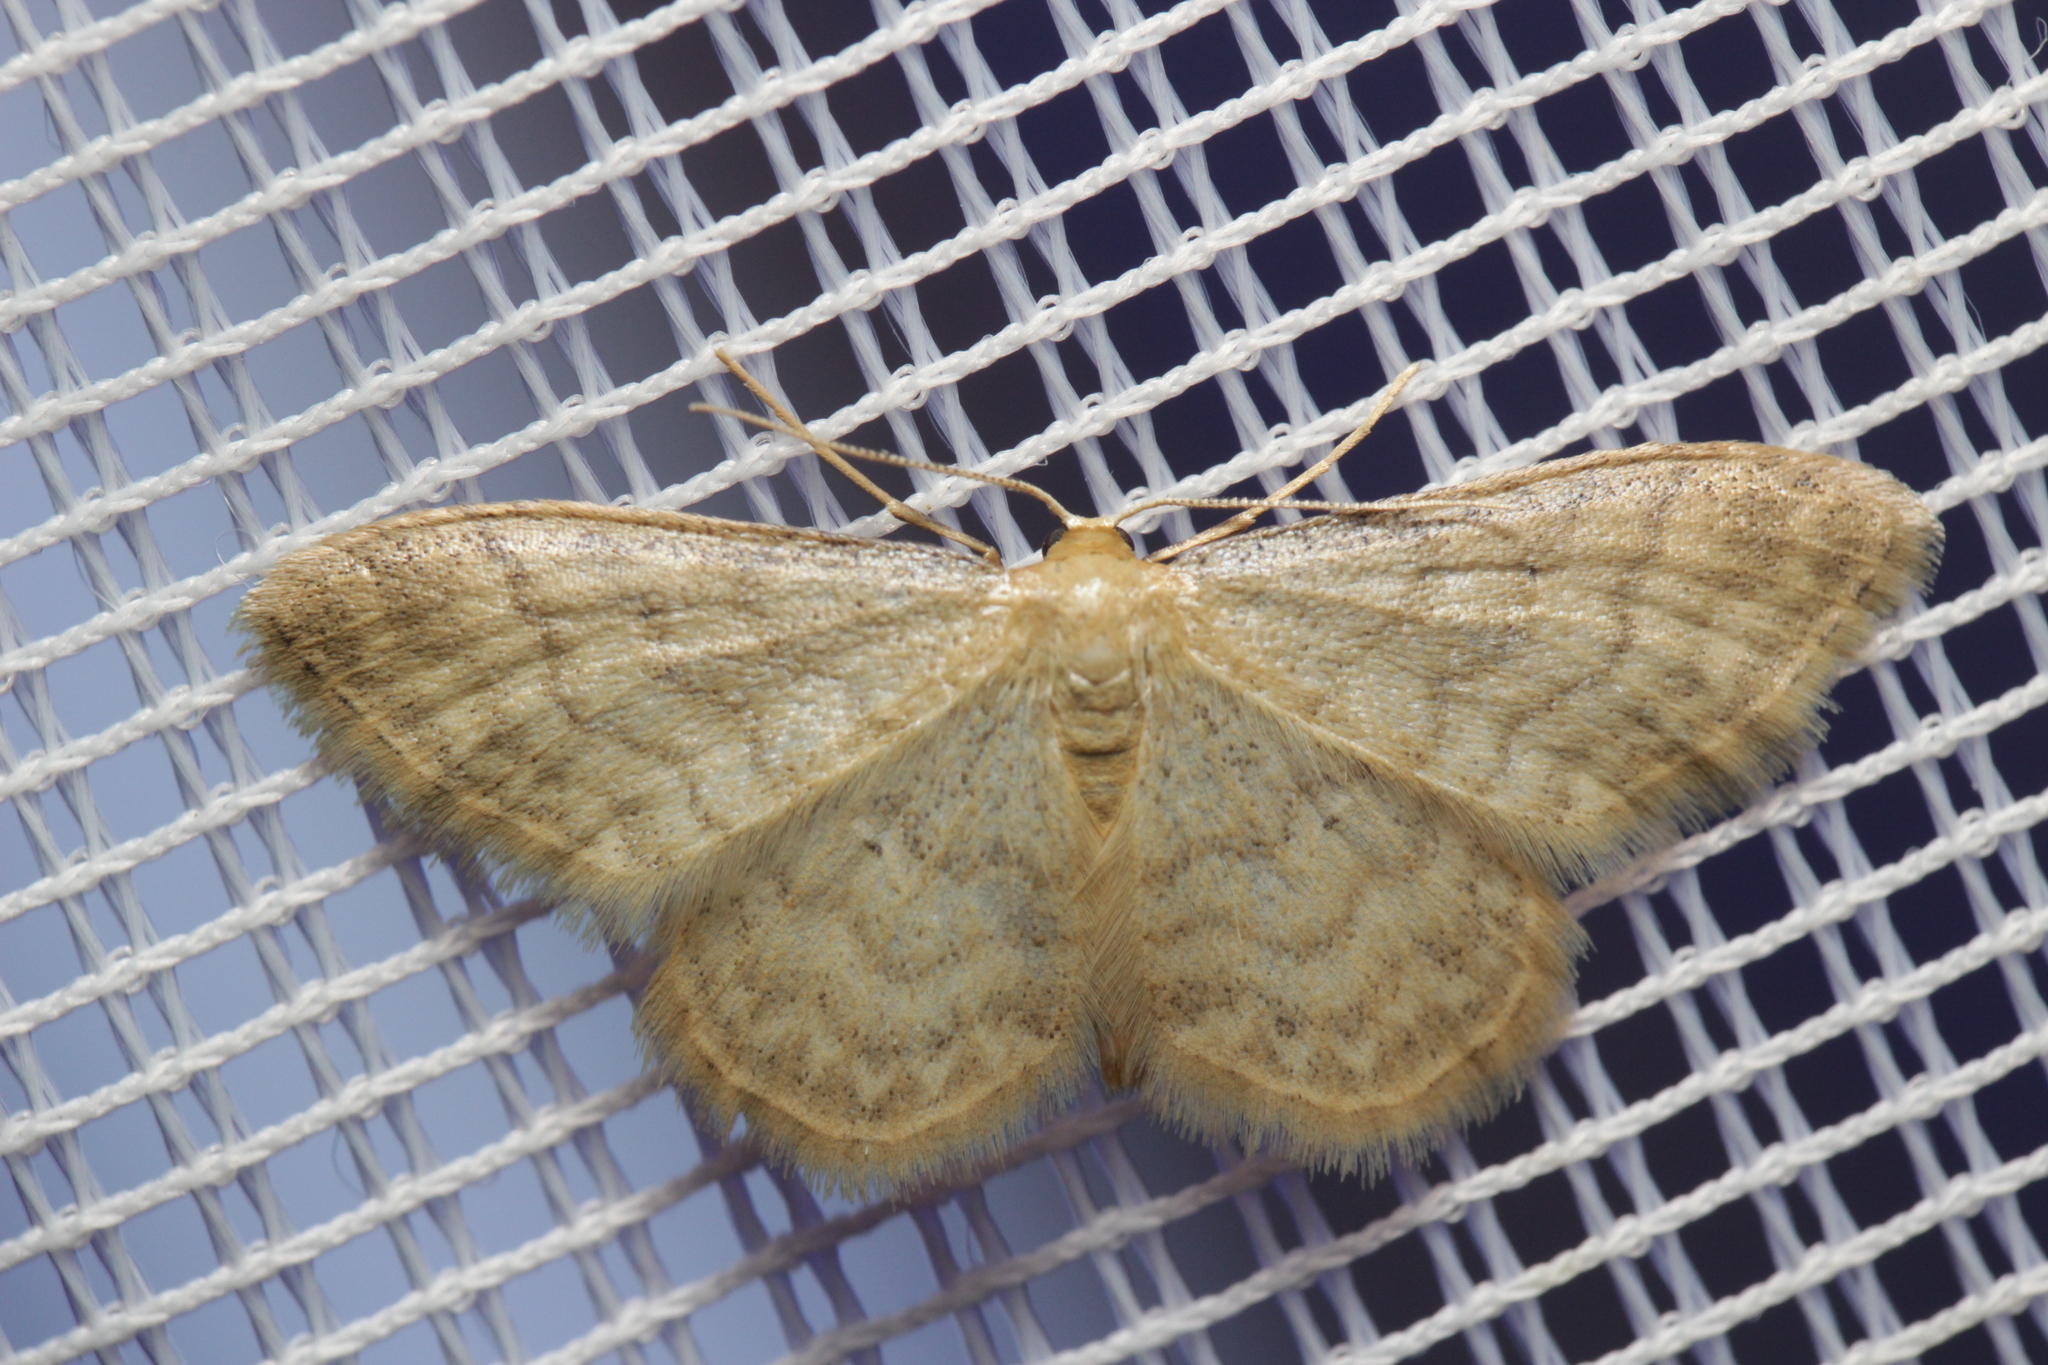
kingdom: Animalia
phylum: Arthropoda
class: Insecta
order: Lepidoptera
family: Geometridae
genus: Idaea
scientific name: Idaea dilutaria
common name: Silky wave
